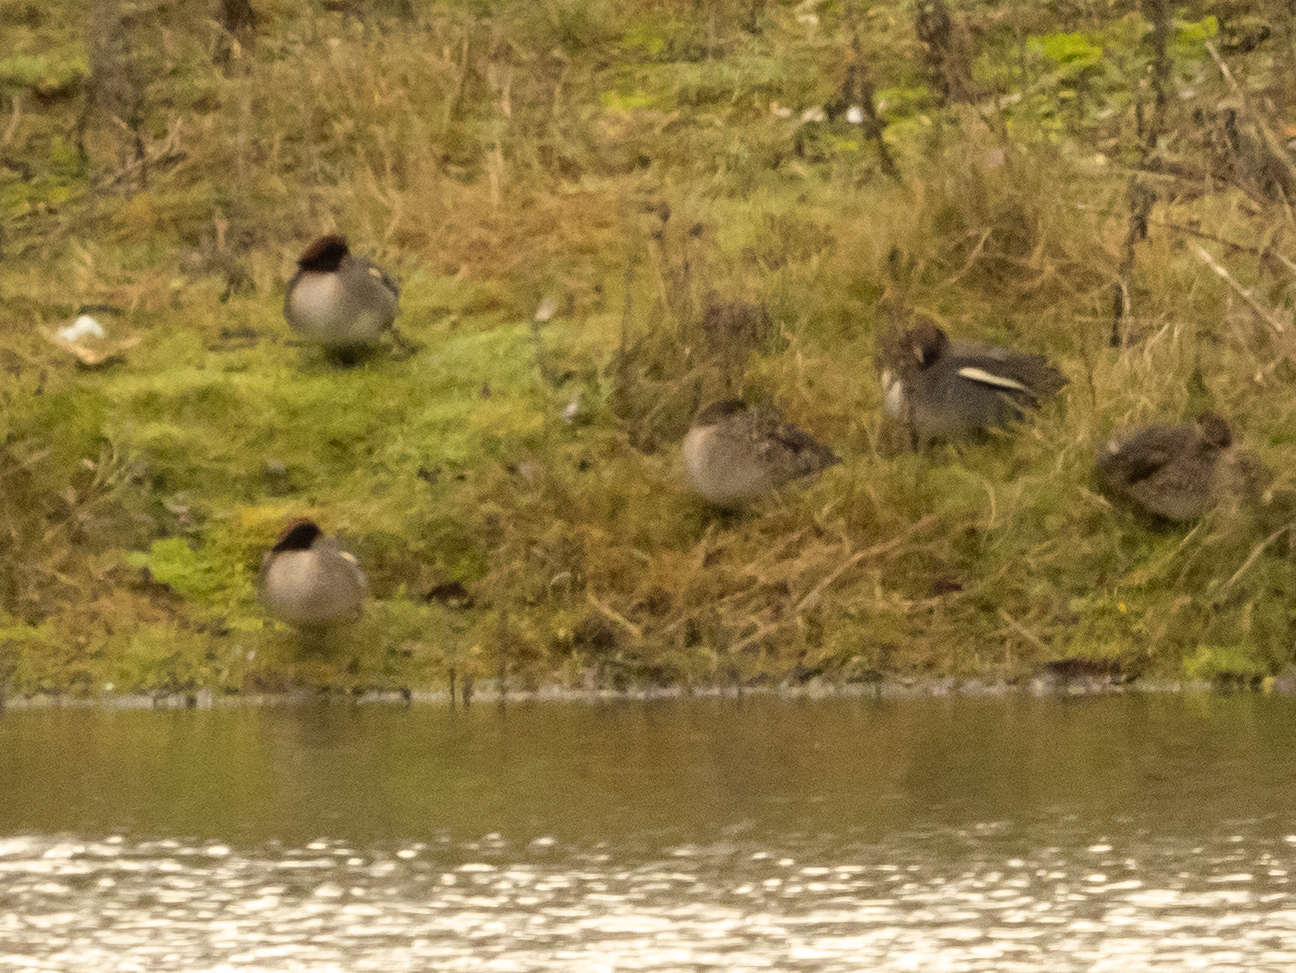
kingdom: Animalia
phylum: Chordata
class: Aves
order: Anseriformes
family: Anatidae
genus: Anas
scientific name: Anas crecca
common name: Eurasian teal
